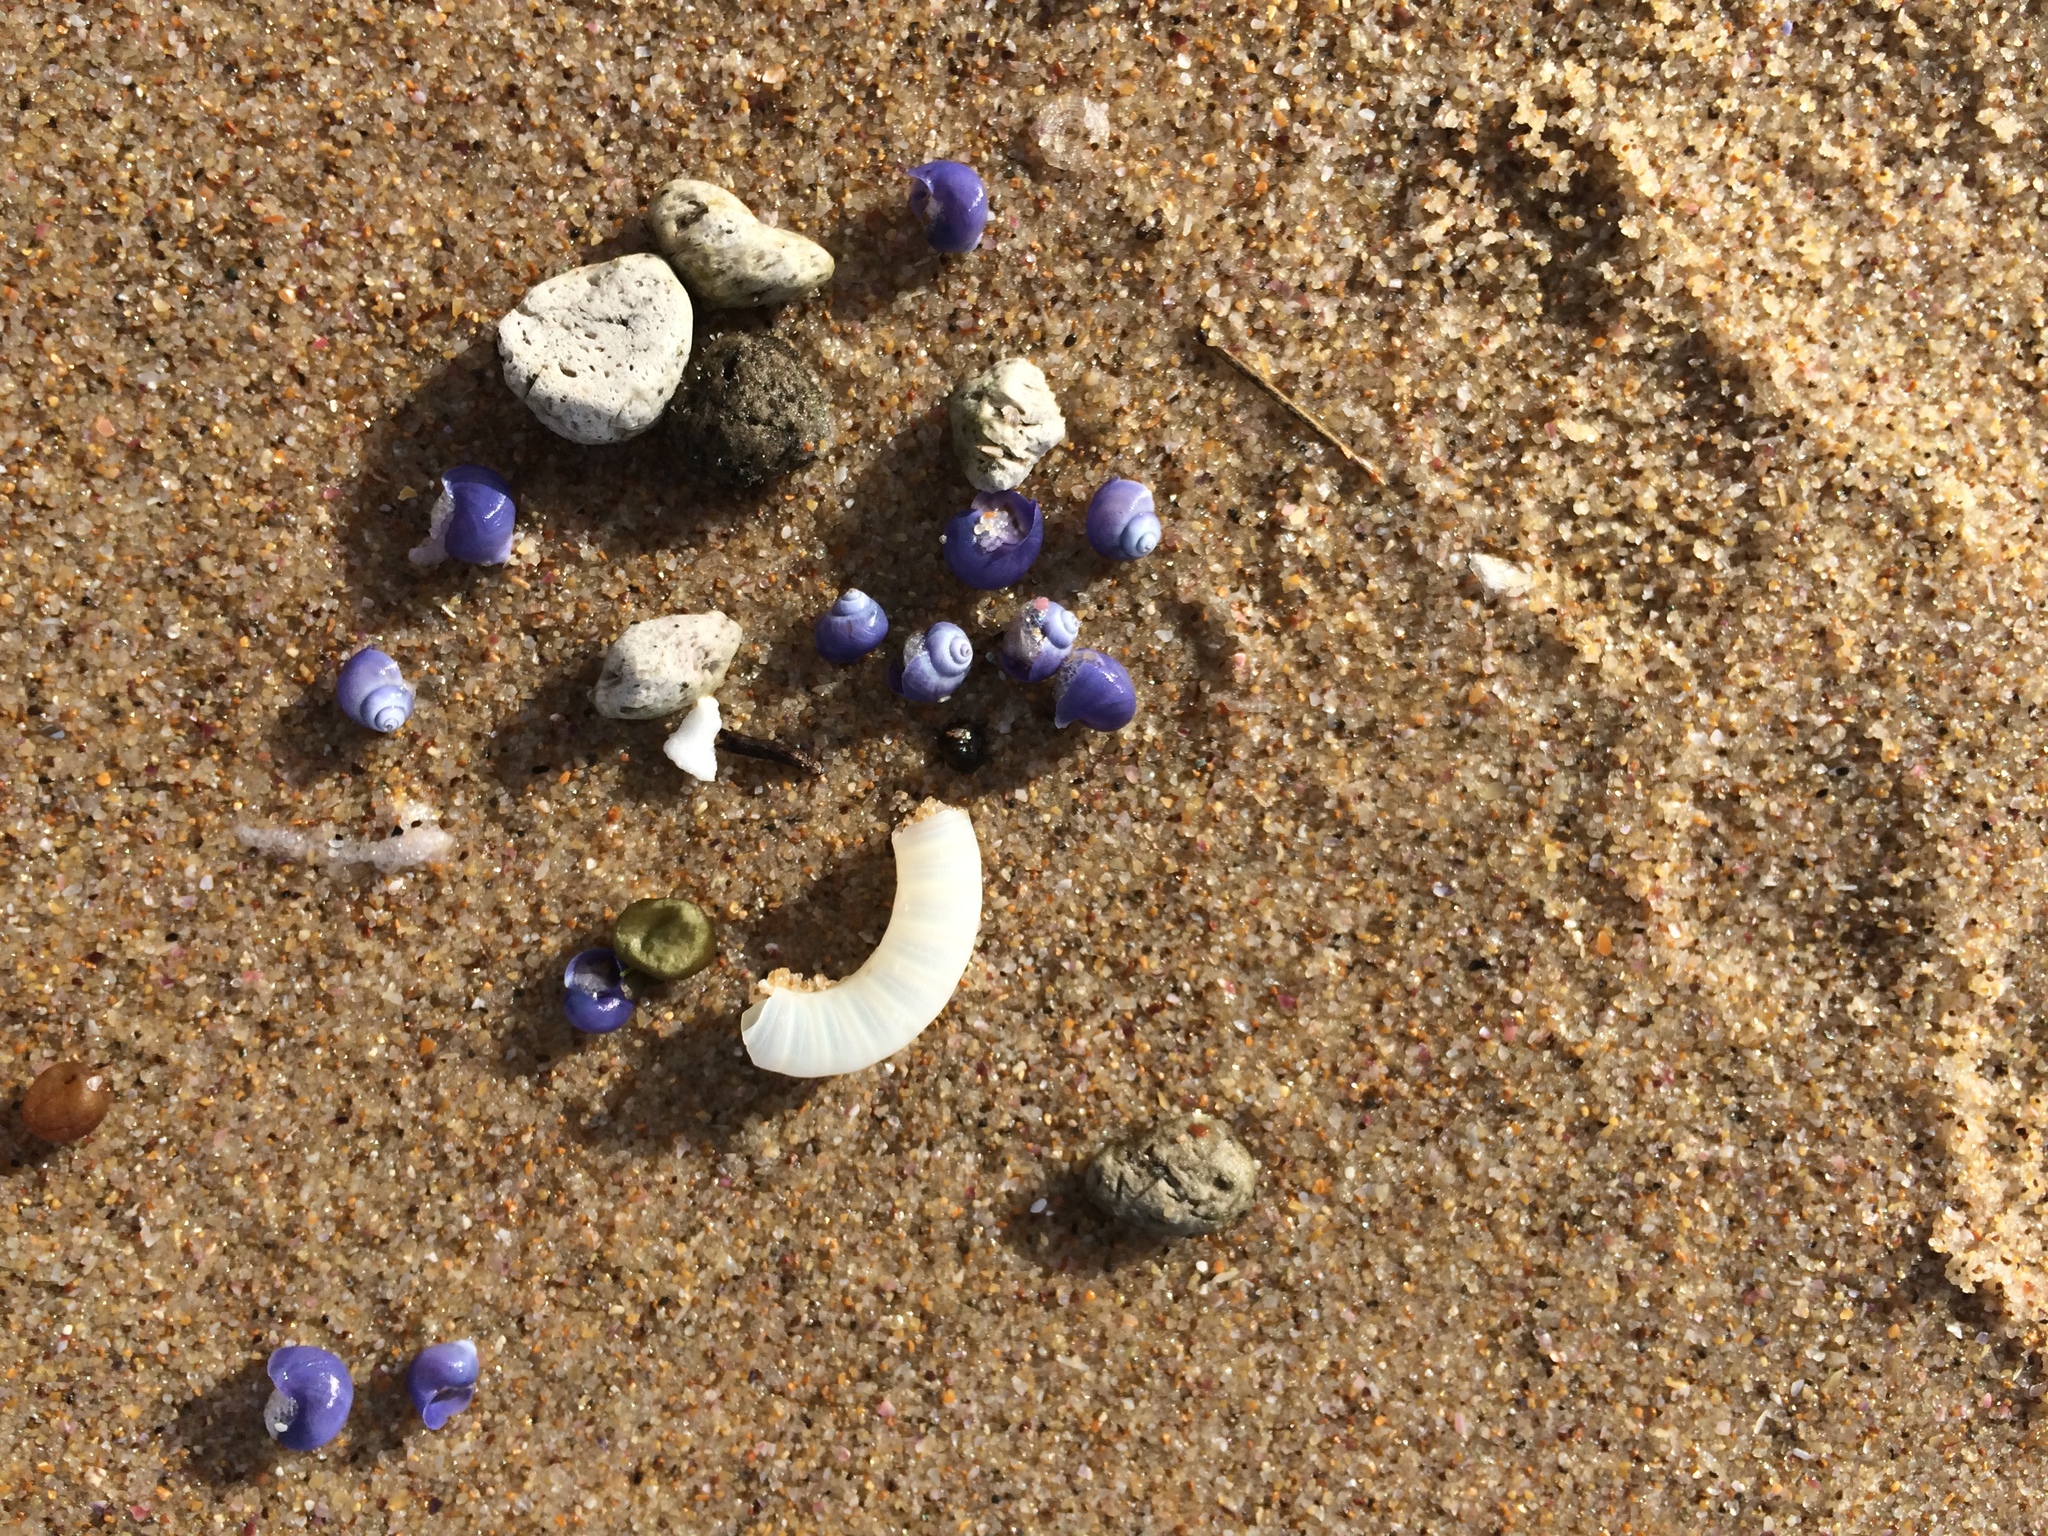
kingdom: Animalia
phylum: Mollusca
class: Gastropoda
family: Epitoniidae
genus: Janthina
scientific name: Janthina umbilicata
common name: Elongate janthina
